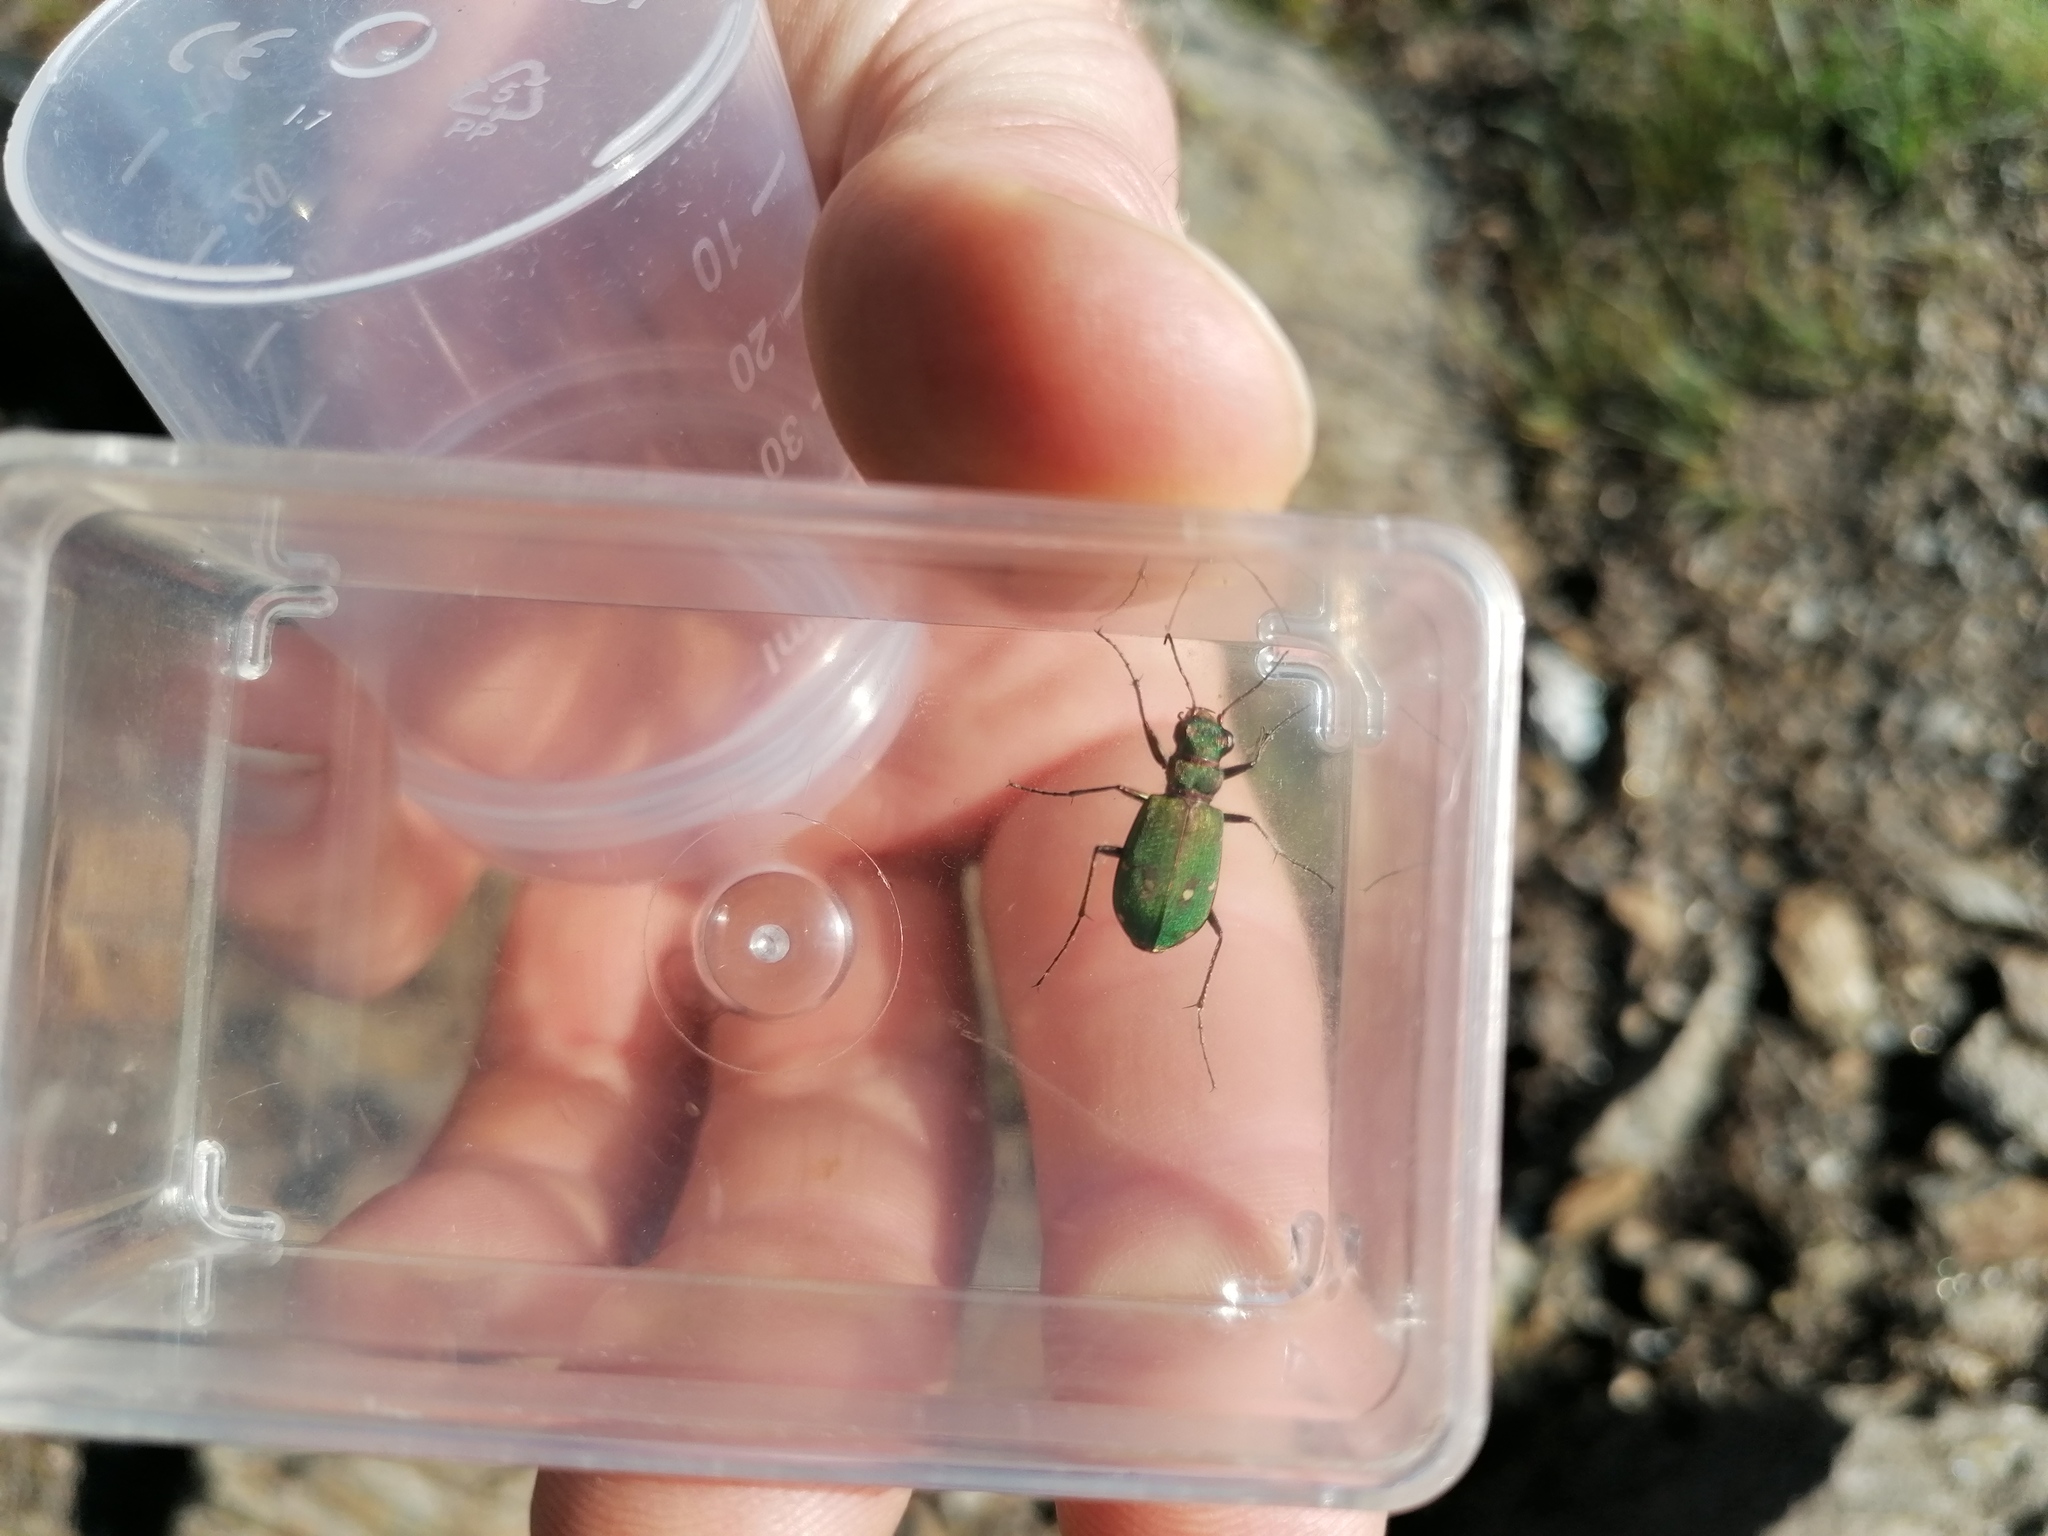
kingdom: Animalia
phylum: Arthropoda
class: Insecta
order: Coleoptera
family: Carabidae
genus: Cicindela
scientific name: Cicindela campestris
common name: Common tiger beetle
